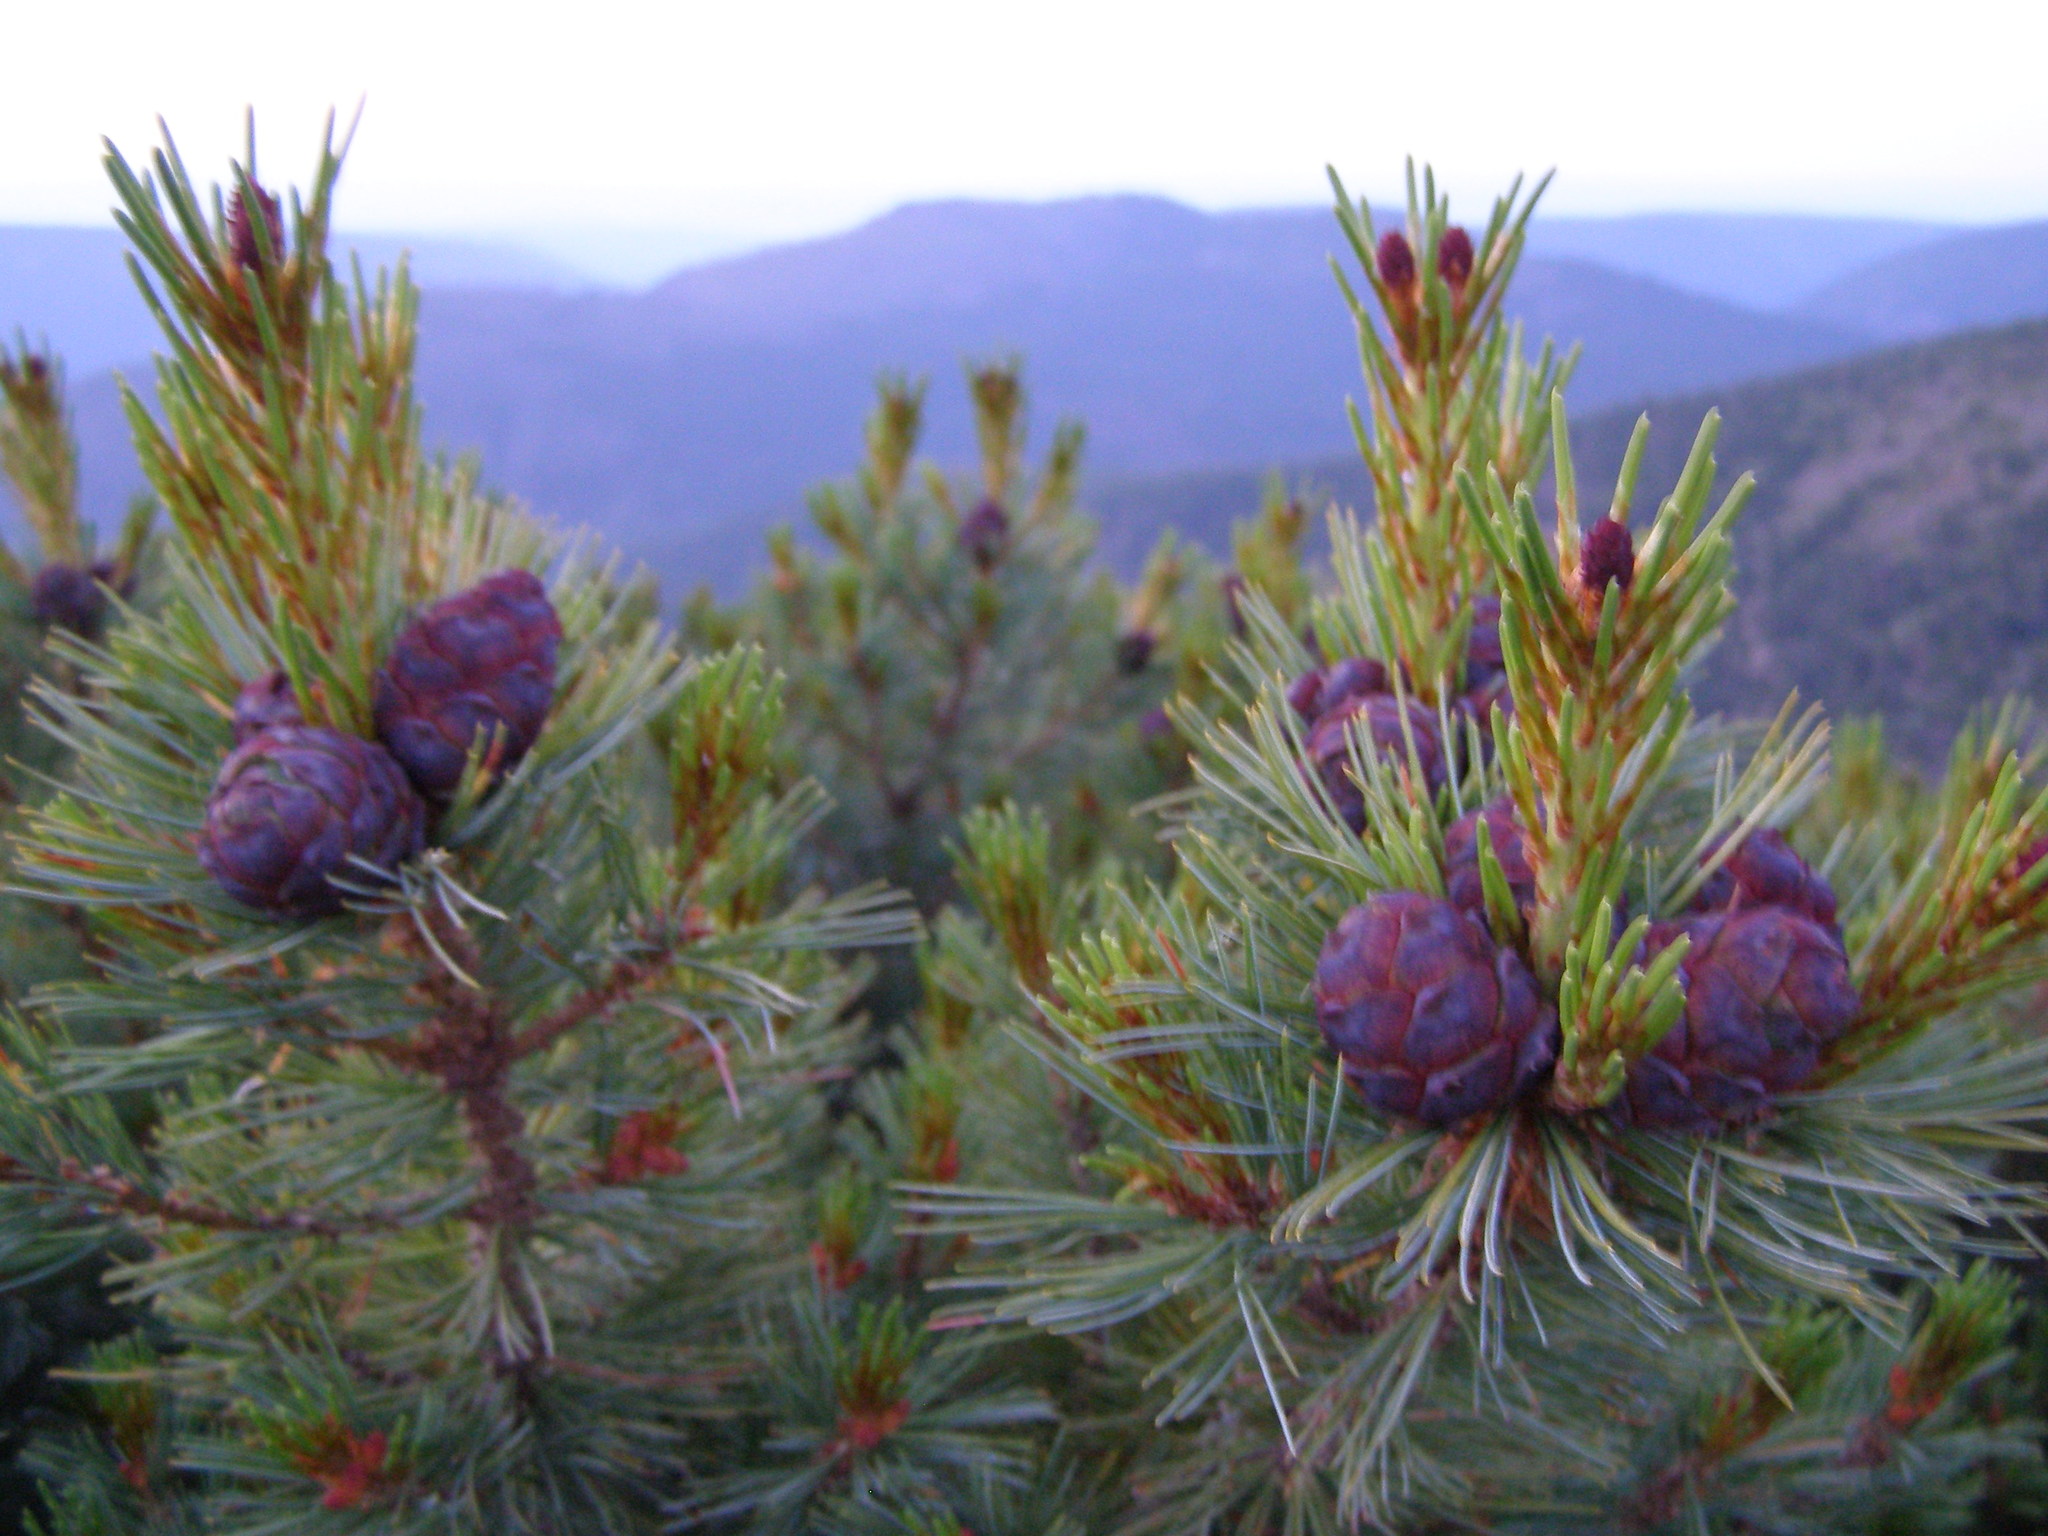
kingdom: Plantae
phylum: Tracheophyta
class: Pinopsida
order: Pinales
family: Pinaceae
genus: Pinus
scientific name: Pinus pumila
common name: Dwarf siberian pine
